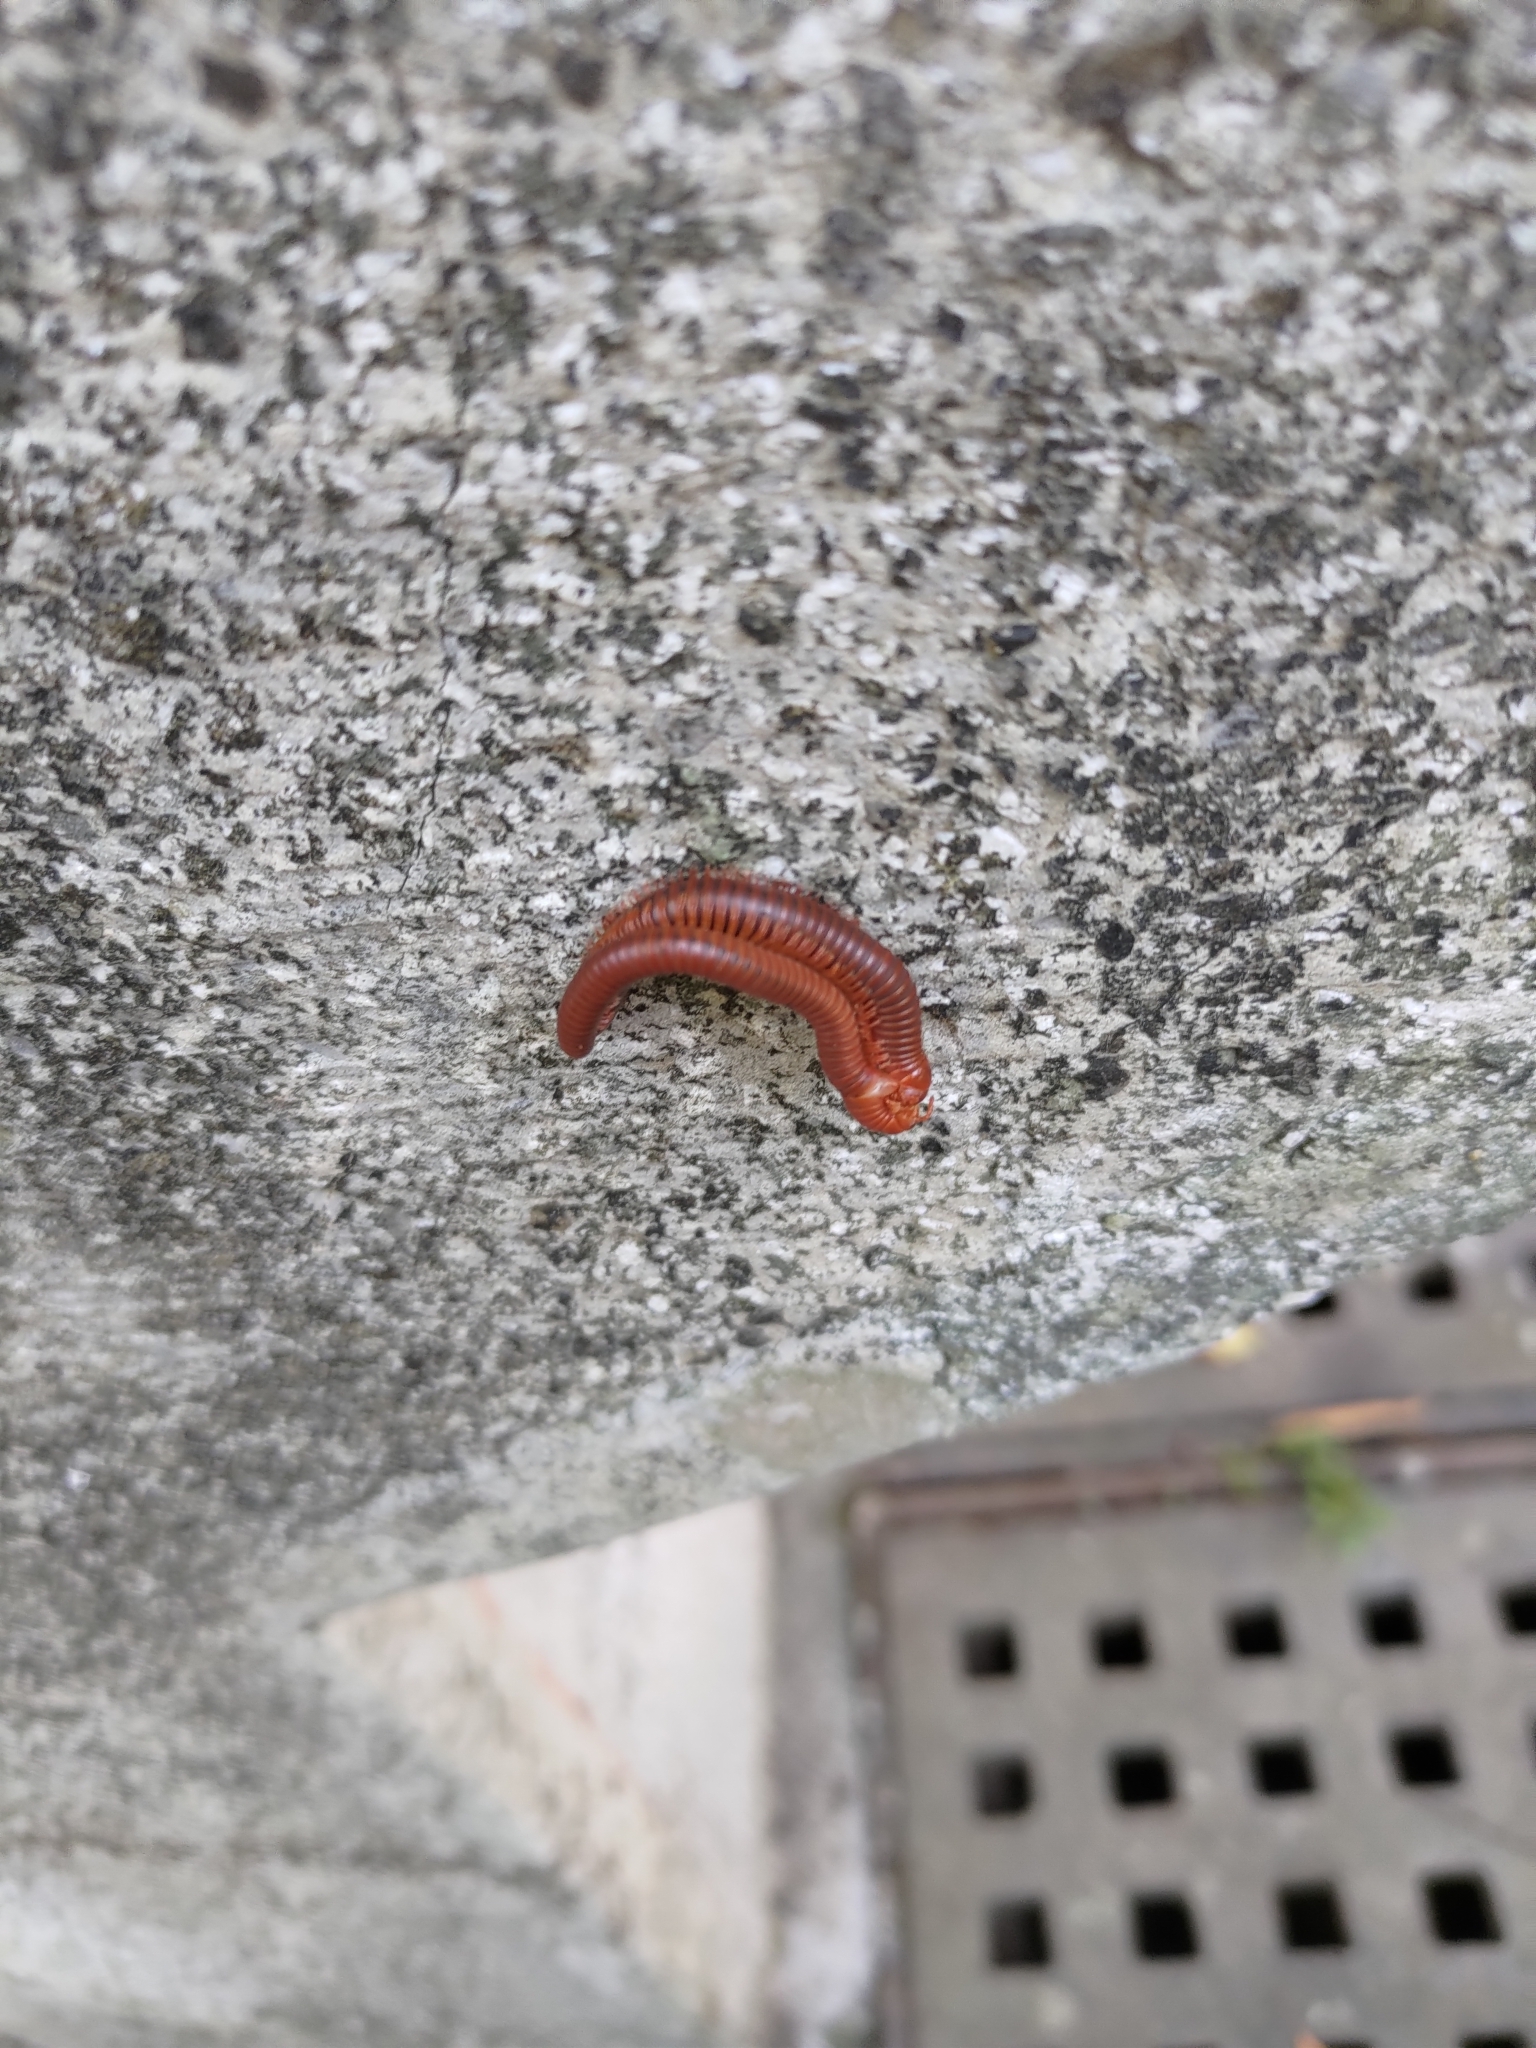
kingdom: Animalia
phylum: Arthropoda
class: Diplopoda
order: Spirobolida
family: Pachybolidae
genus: Trigoniulus
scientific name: Trigoniulus corallinus
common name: Millipede
